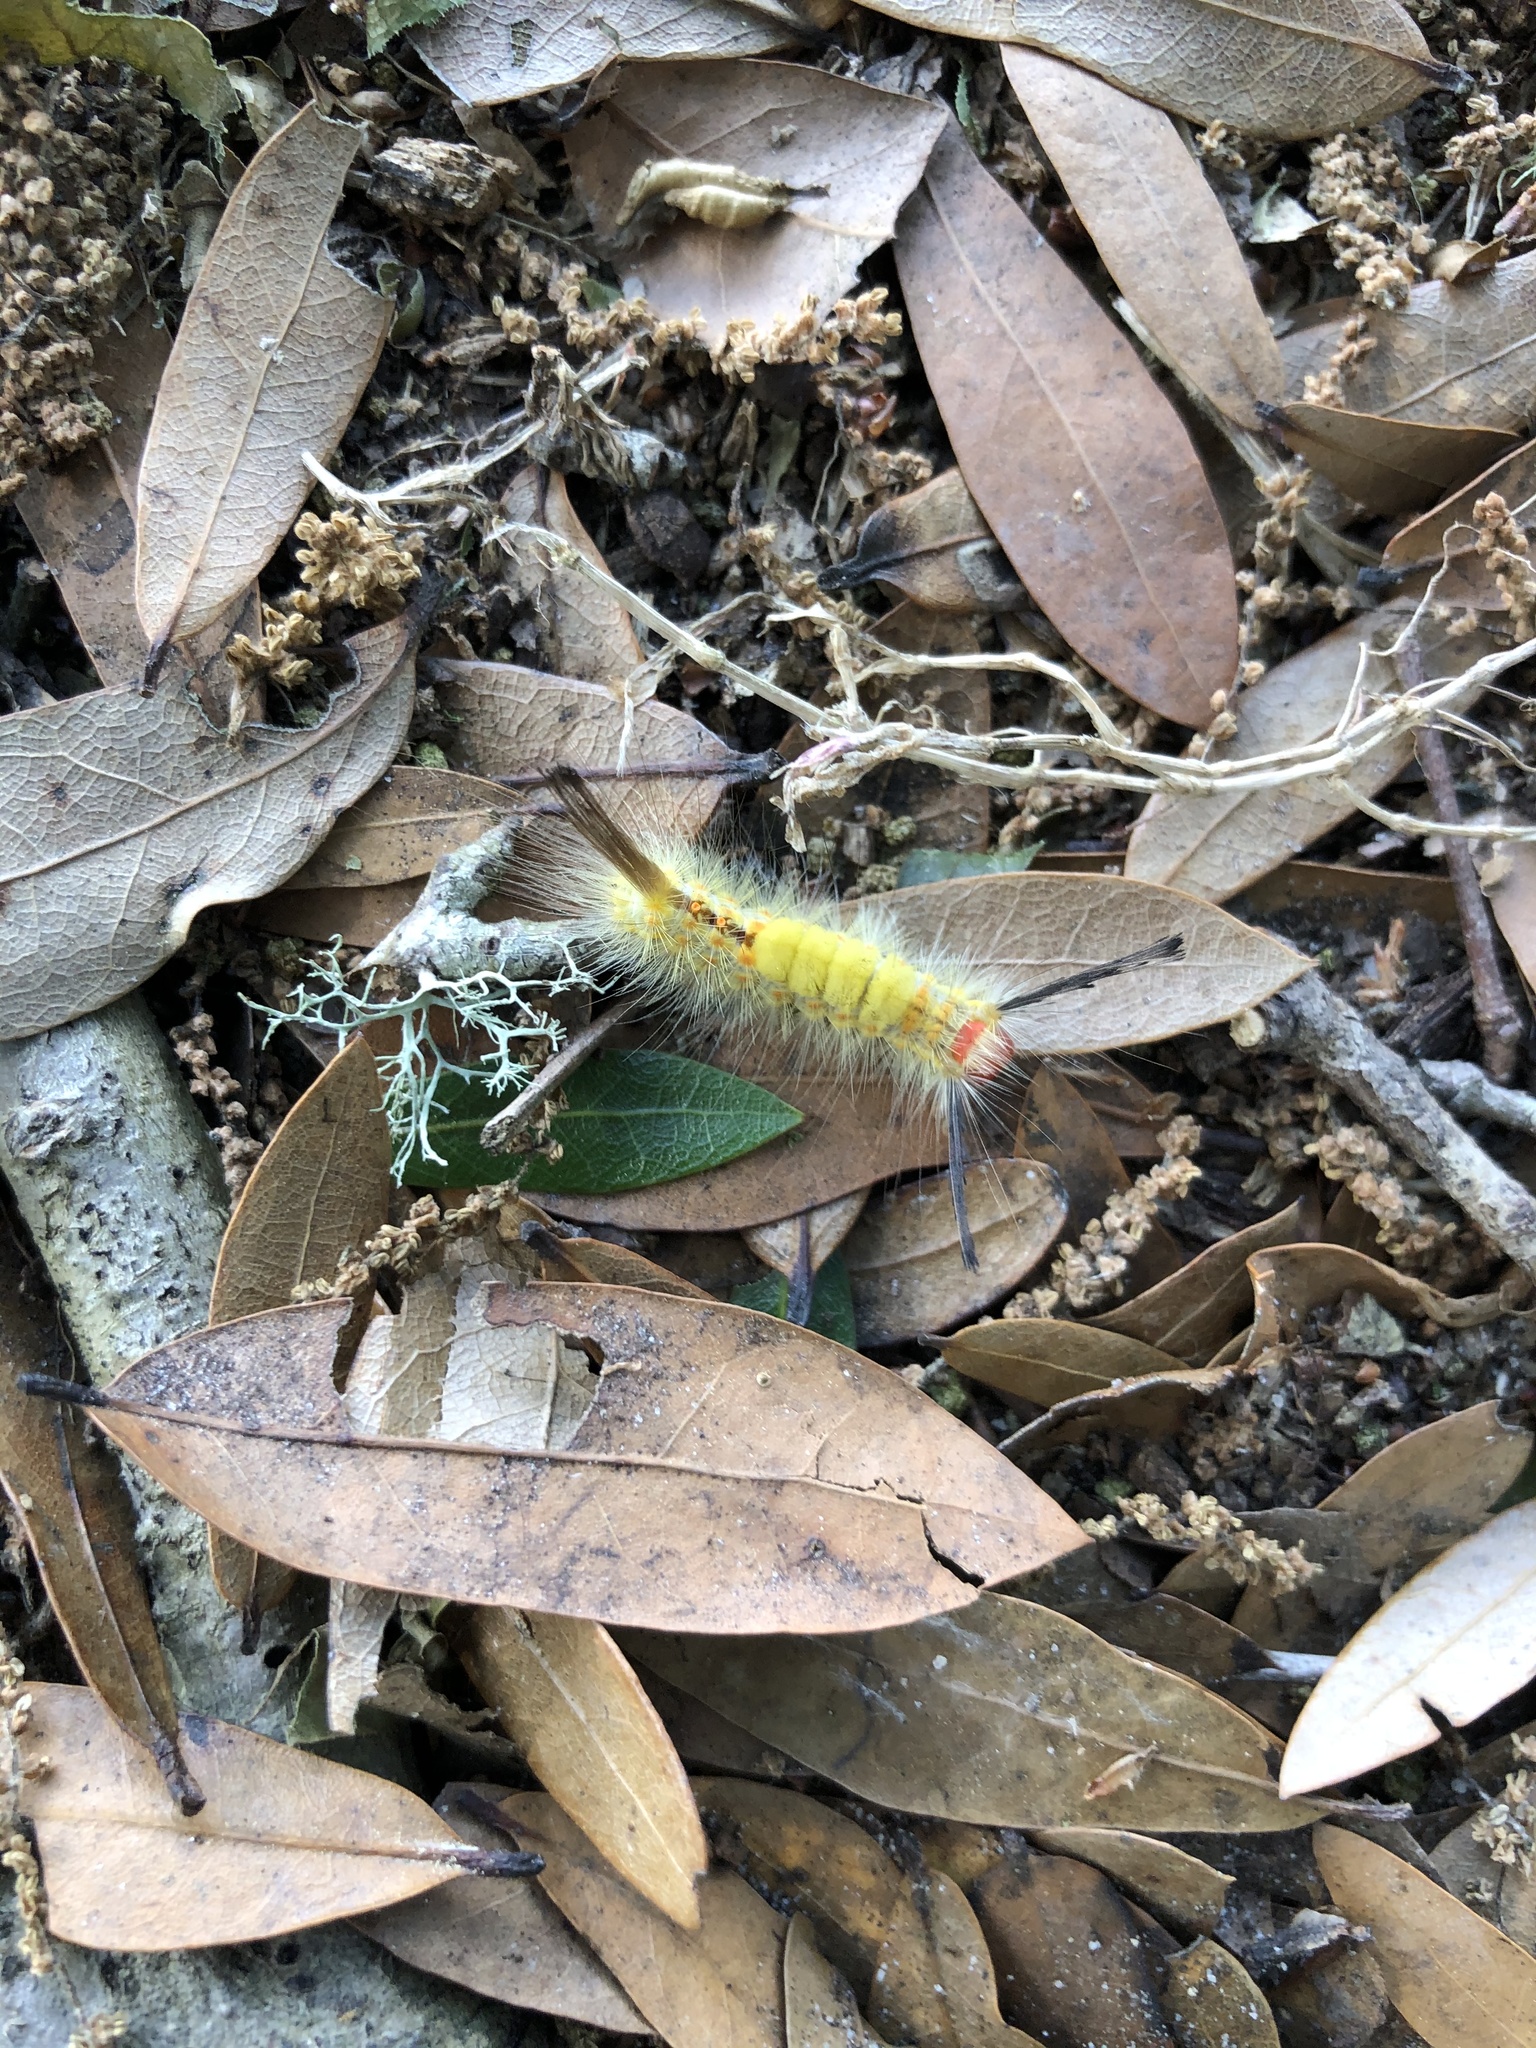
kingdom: Animalia
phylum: Arthropoda
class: Insecta
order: Lepidoptera
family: Erebidae
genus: Orgyia
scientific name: Orgyia detrita
